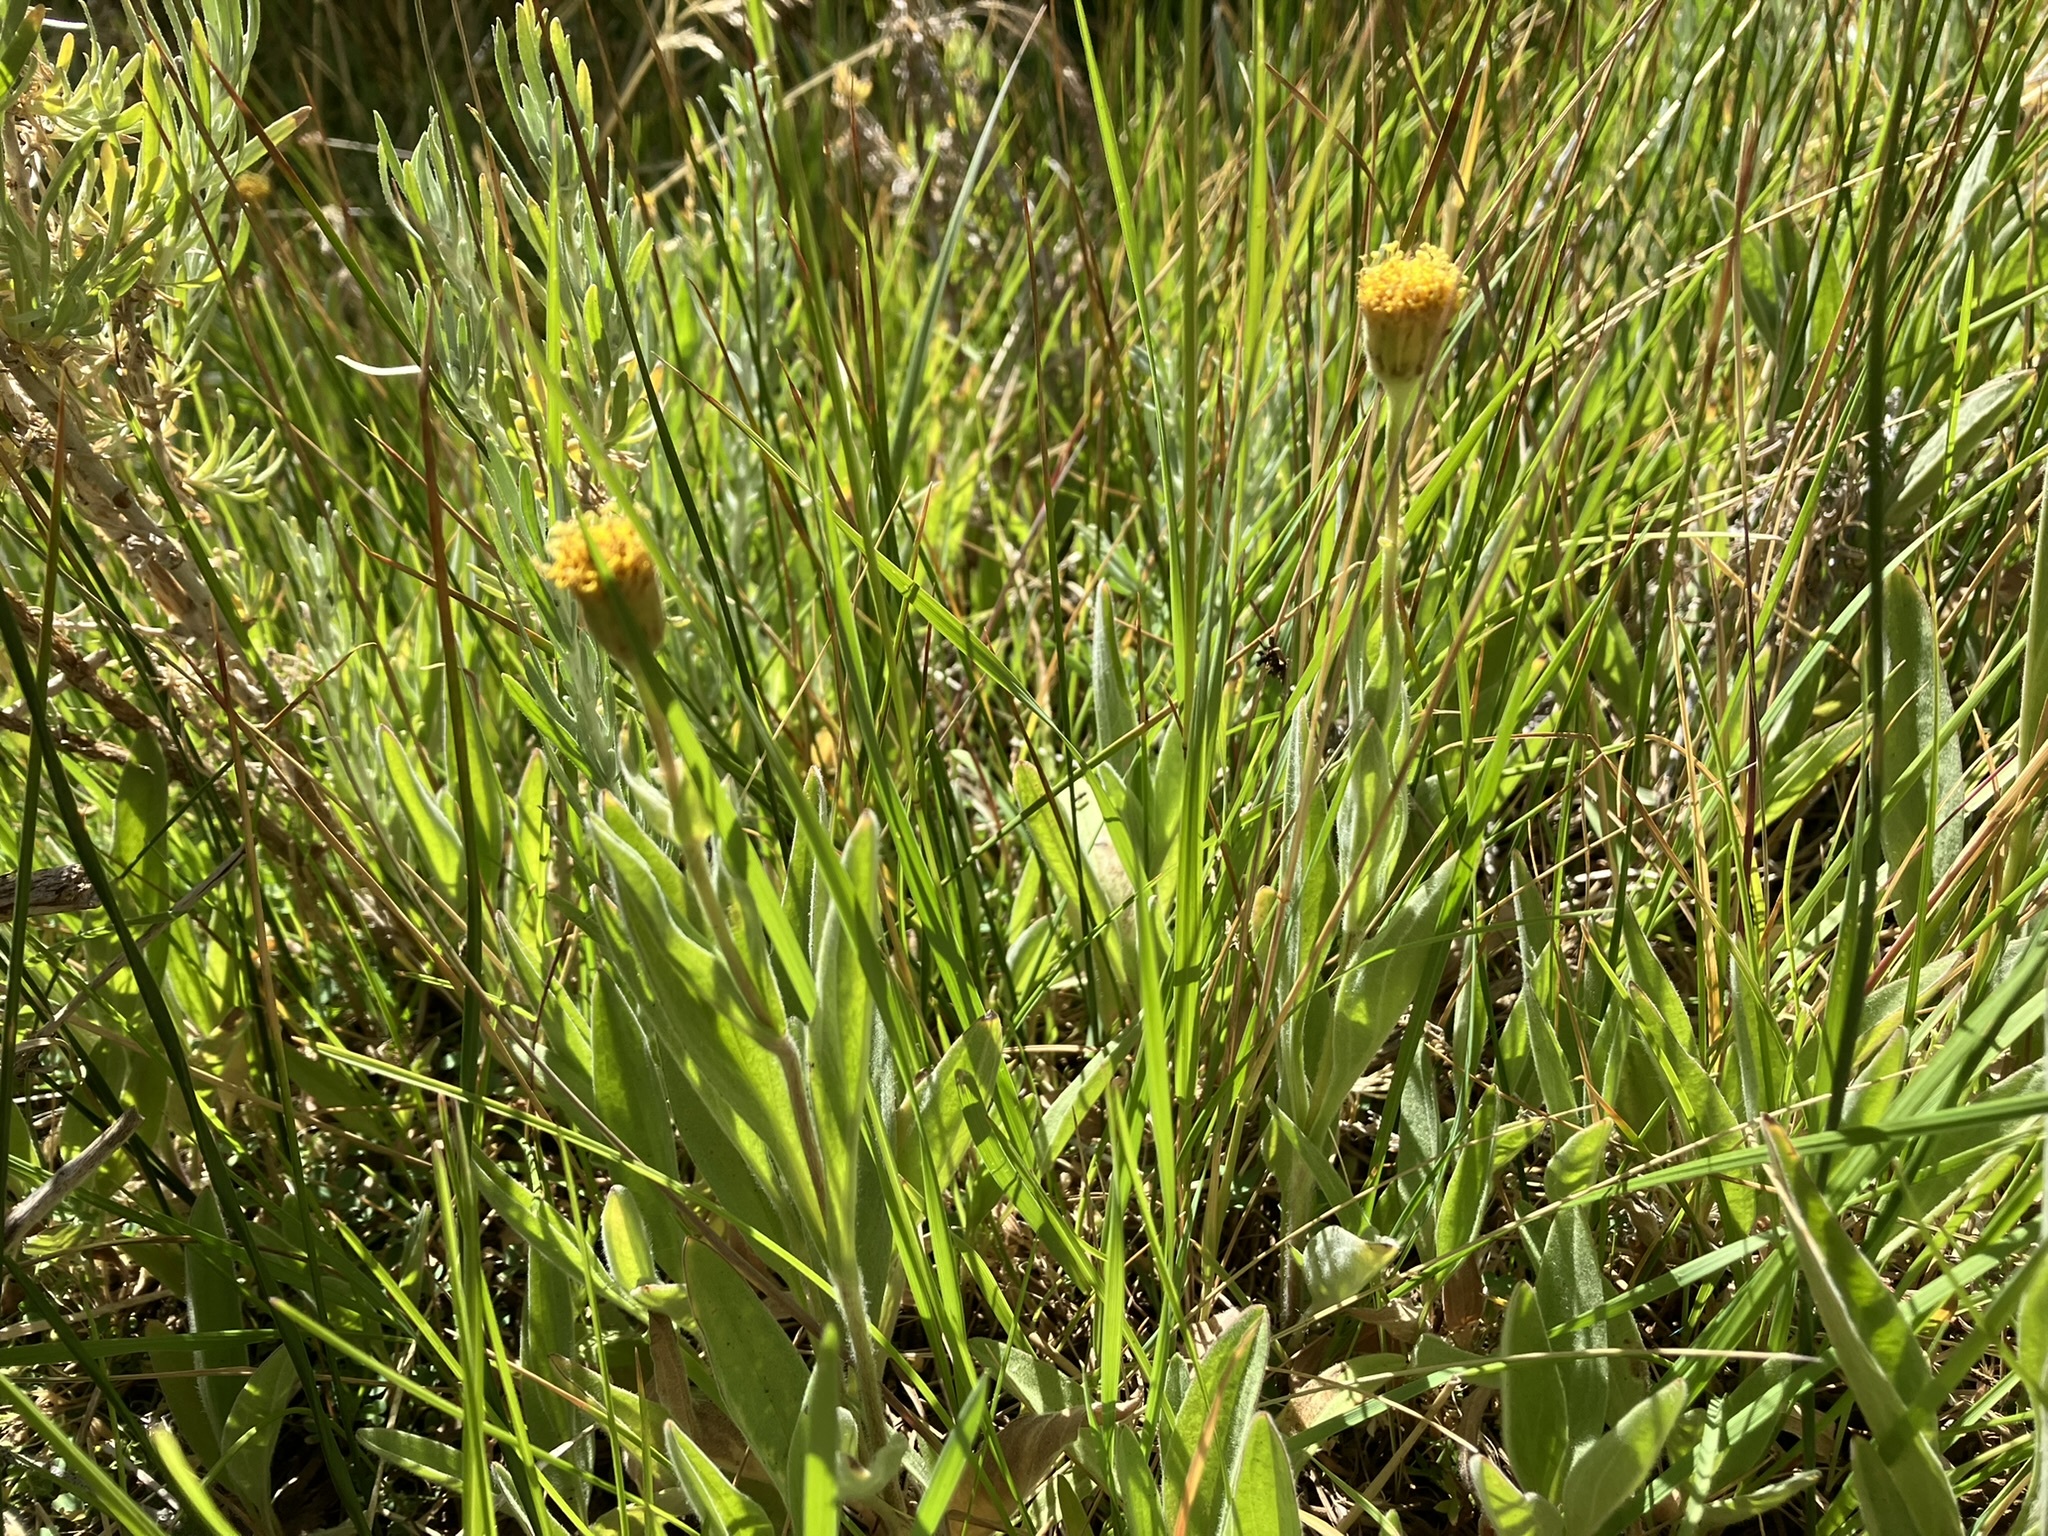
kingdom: Plantae
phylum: Tracheophyta
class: Magnoliopsida
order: Asterales
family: Asteraceae
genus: Arnica
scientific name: Arnica parryi
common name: Parry's arnica
